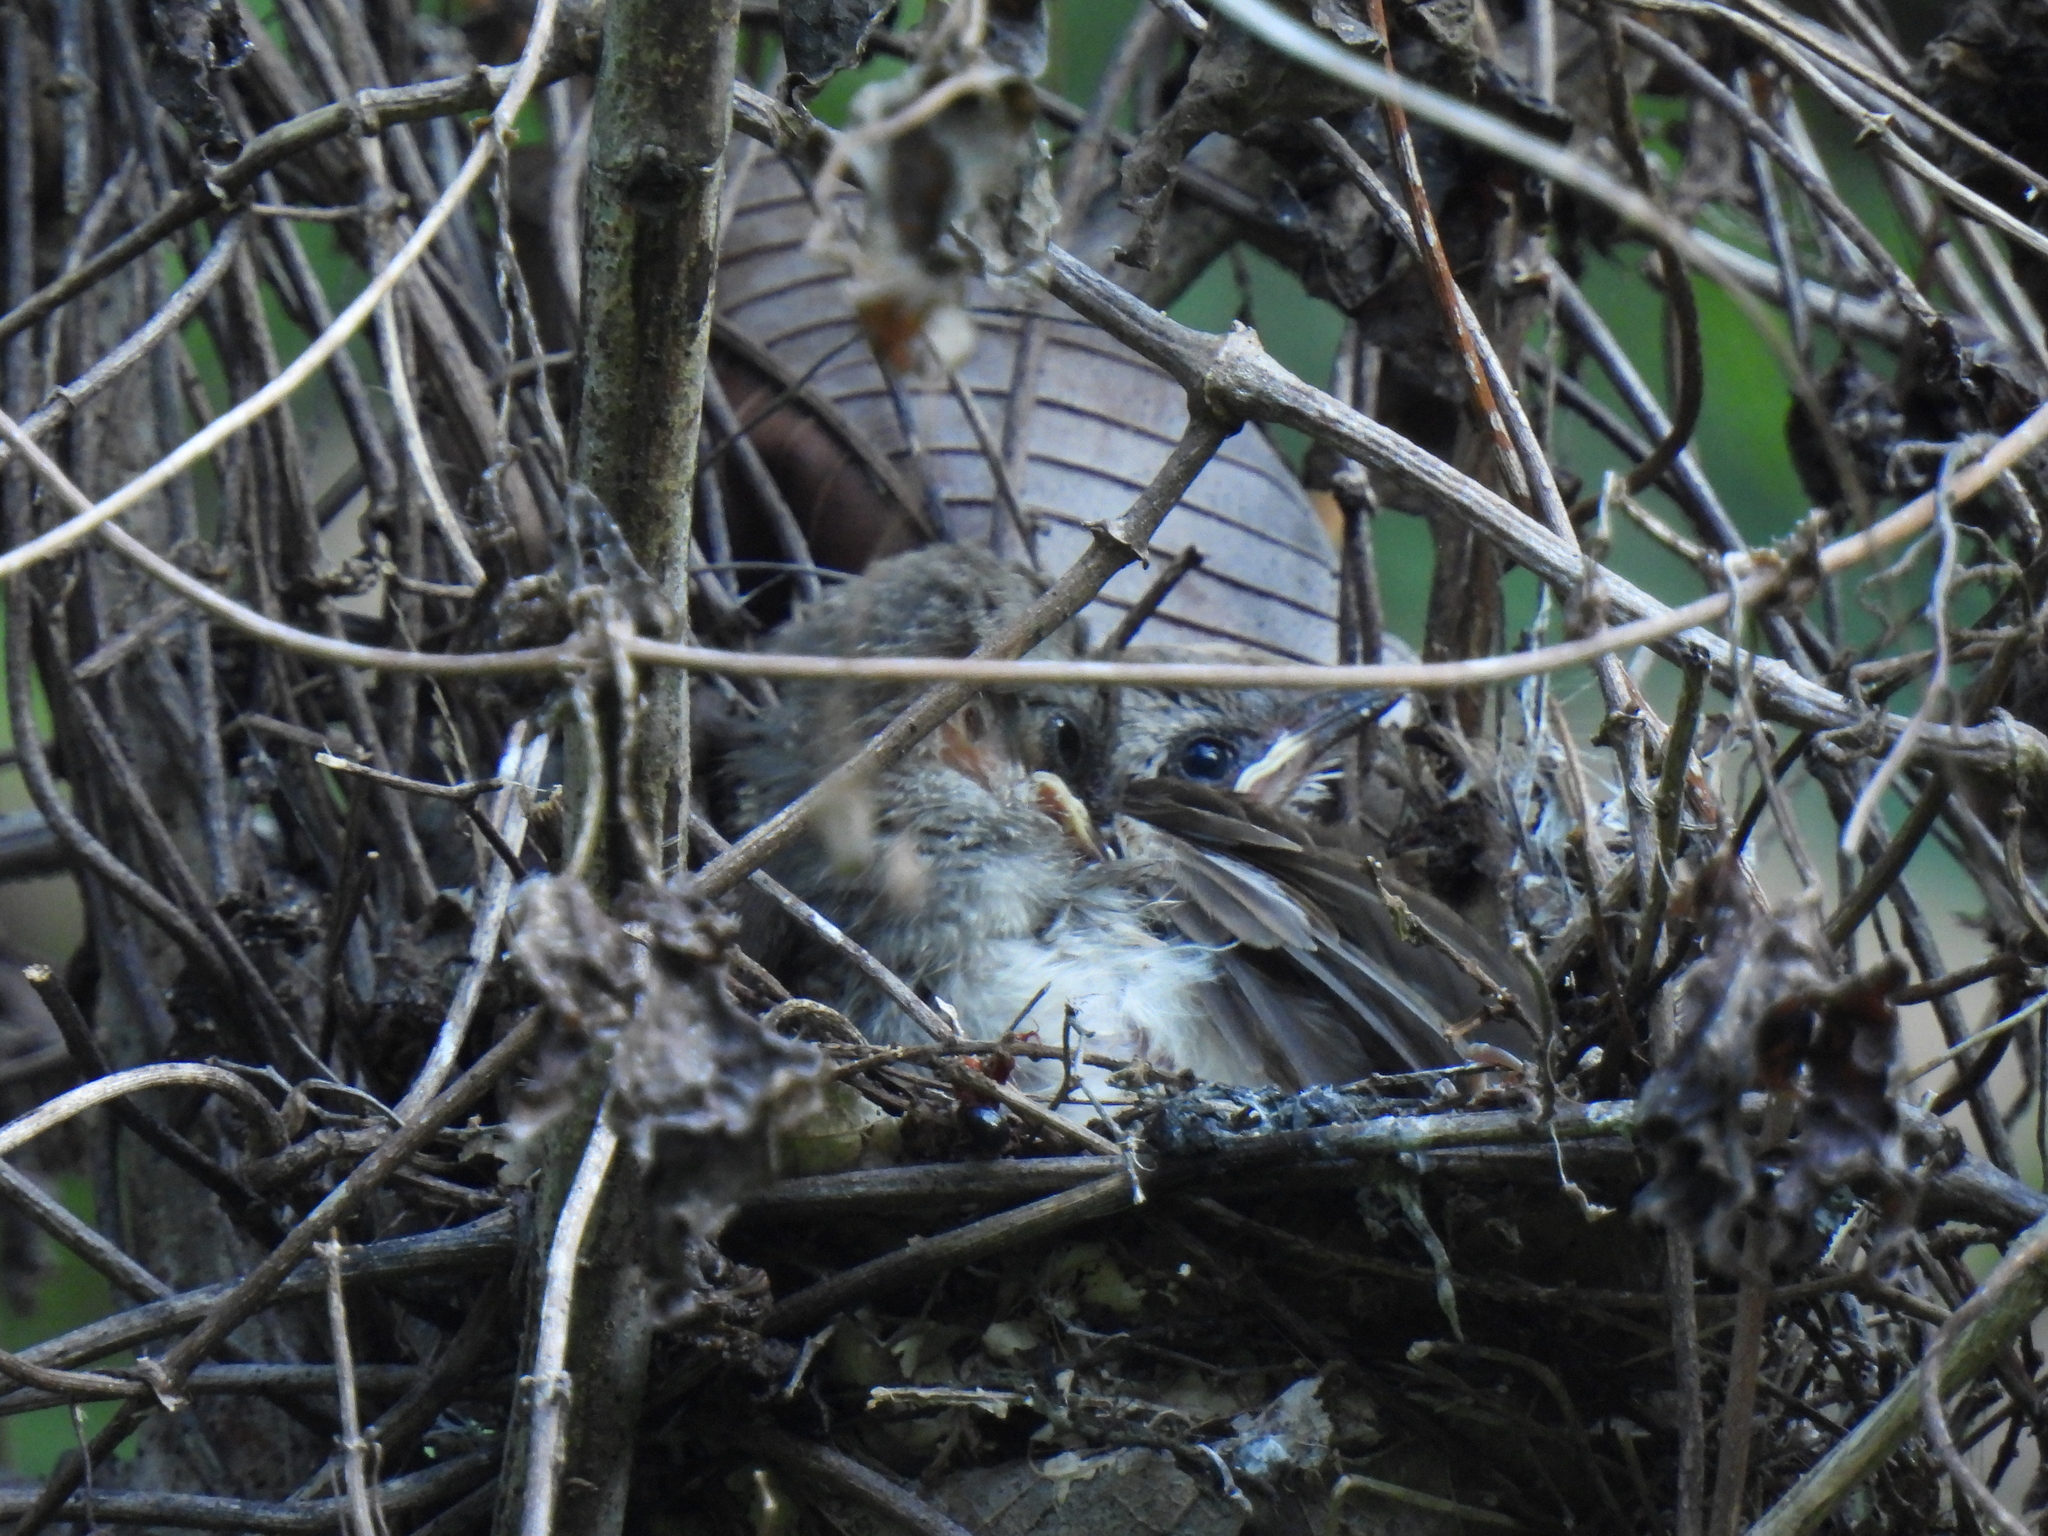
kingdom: Animalia
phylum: Chordata
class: Aves
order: Passeriformes
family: Pycnonotidae
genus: Pycnonotus
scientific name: Pycnonotus goiavier
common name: Yellow-vented bulbul
